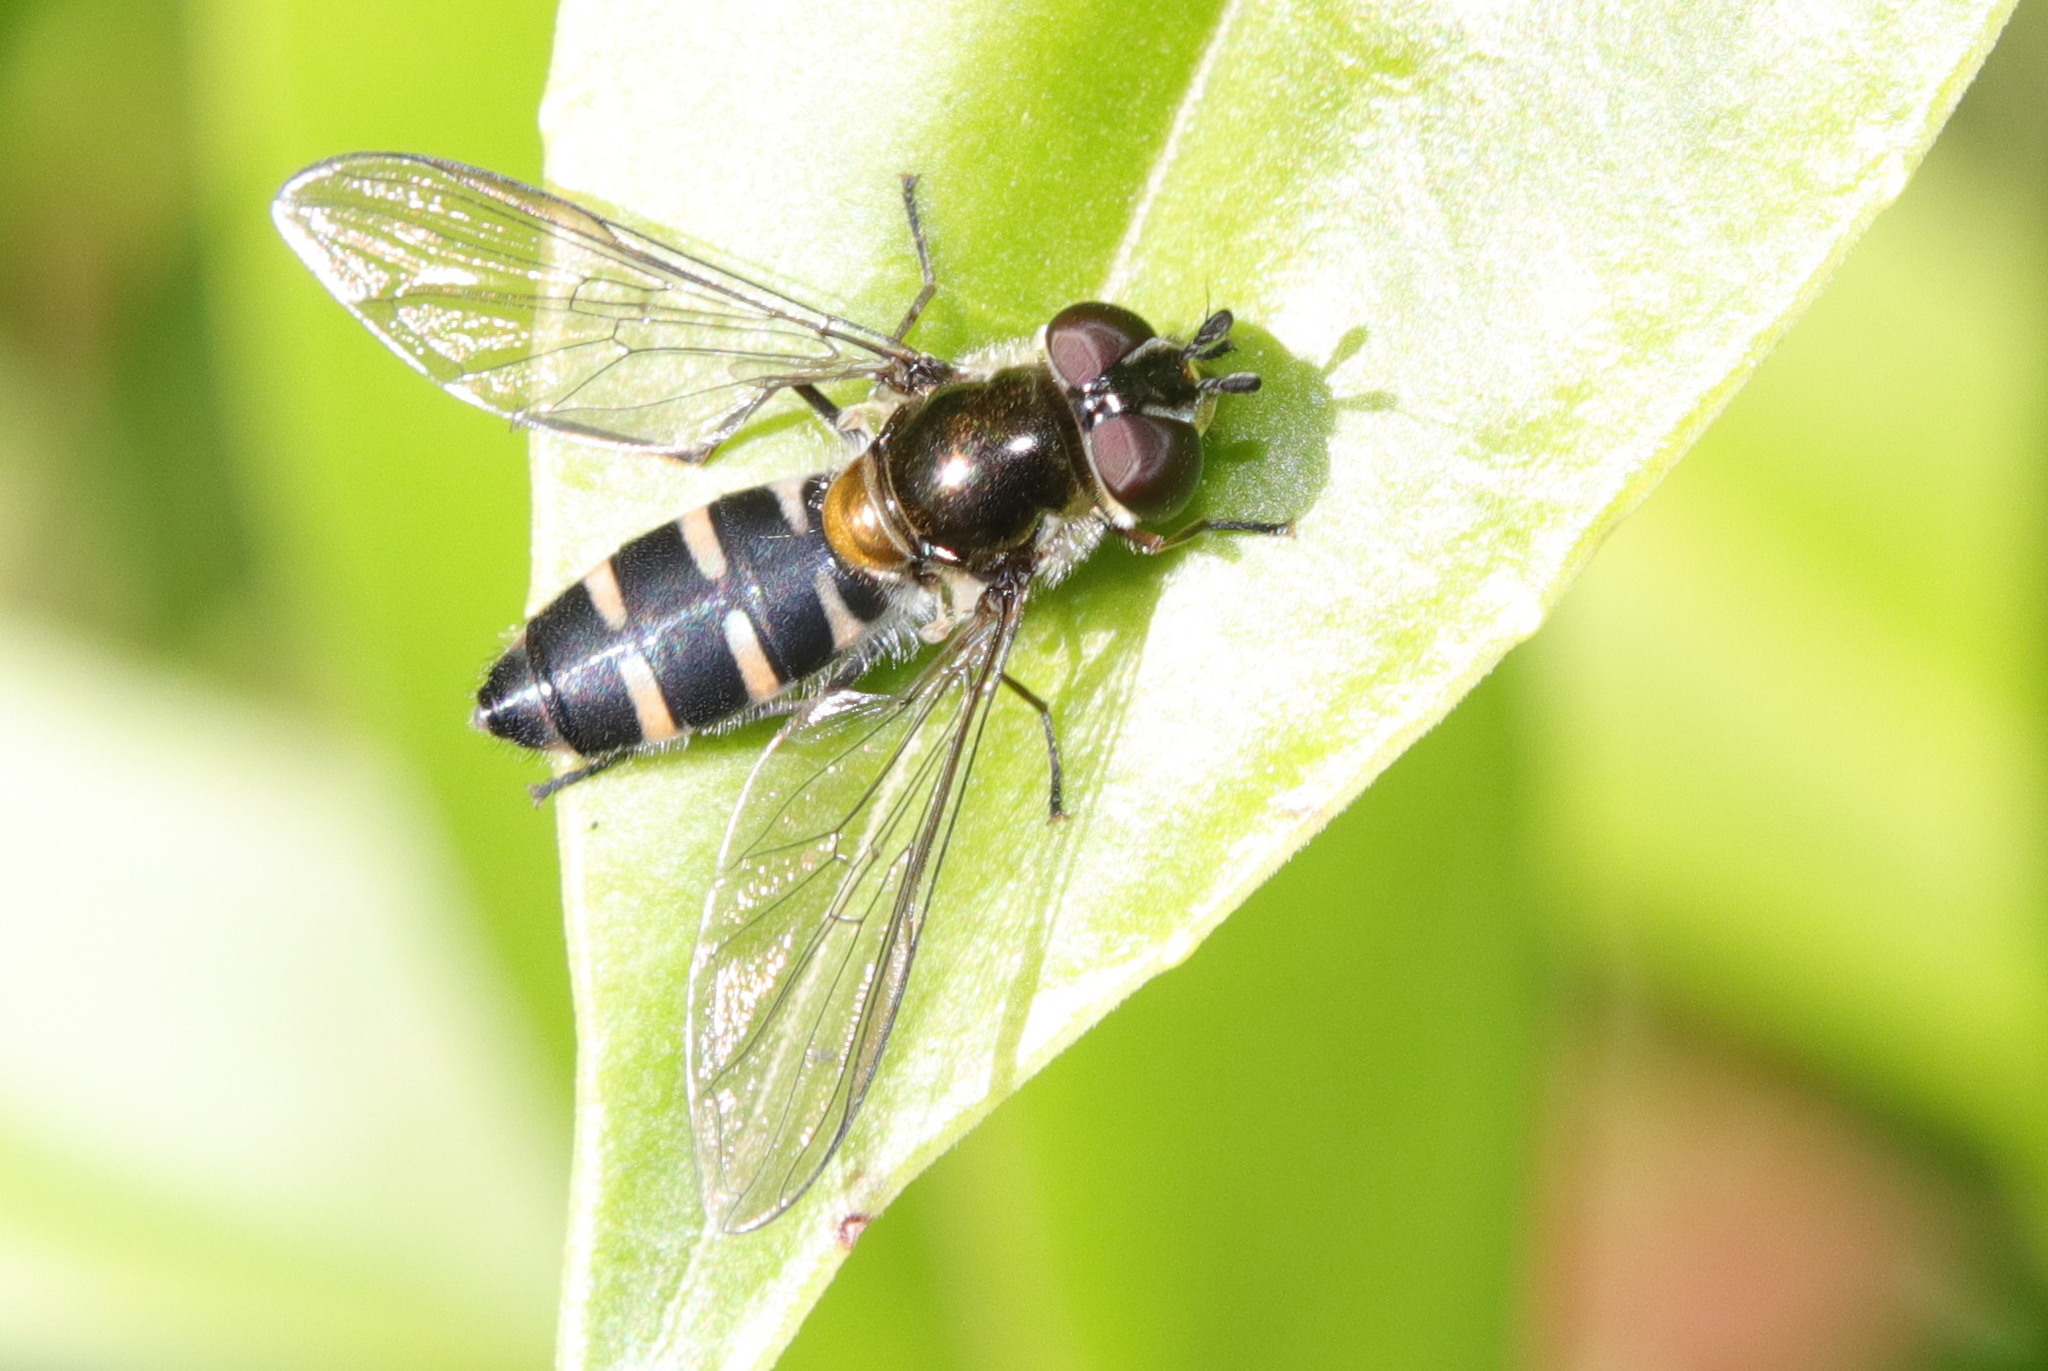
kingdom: Animalia
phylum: Arthropoda
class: Insecta
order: Diptera
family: Syrphidae
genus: Melangyna
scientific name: Melangyna novaezelandiae
